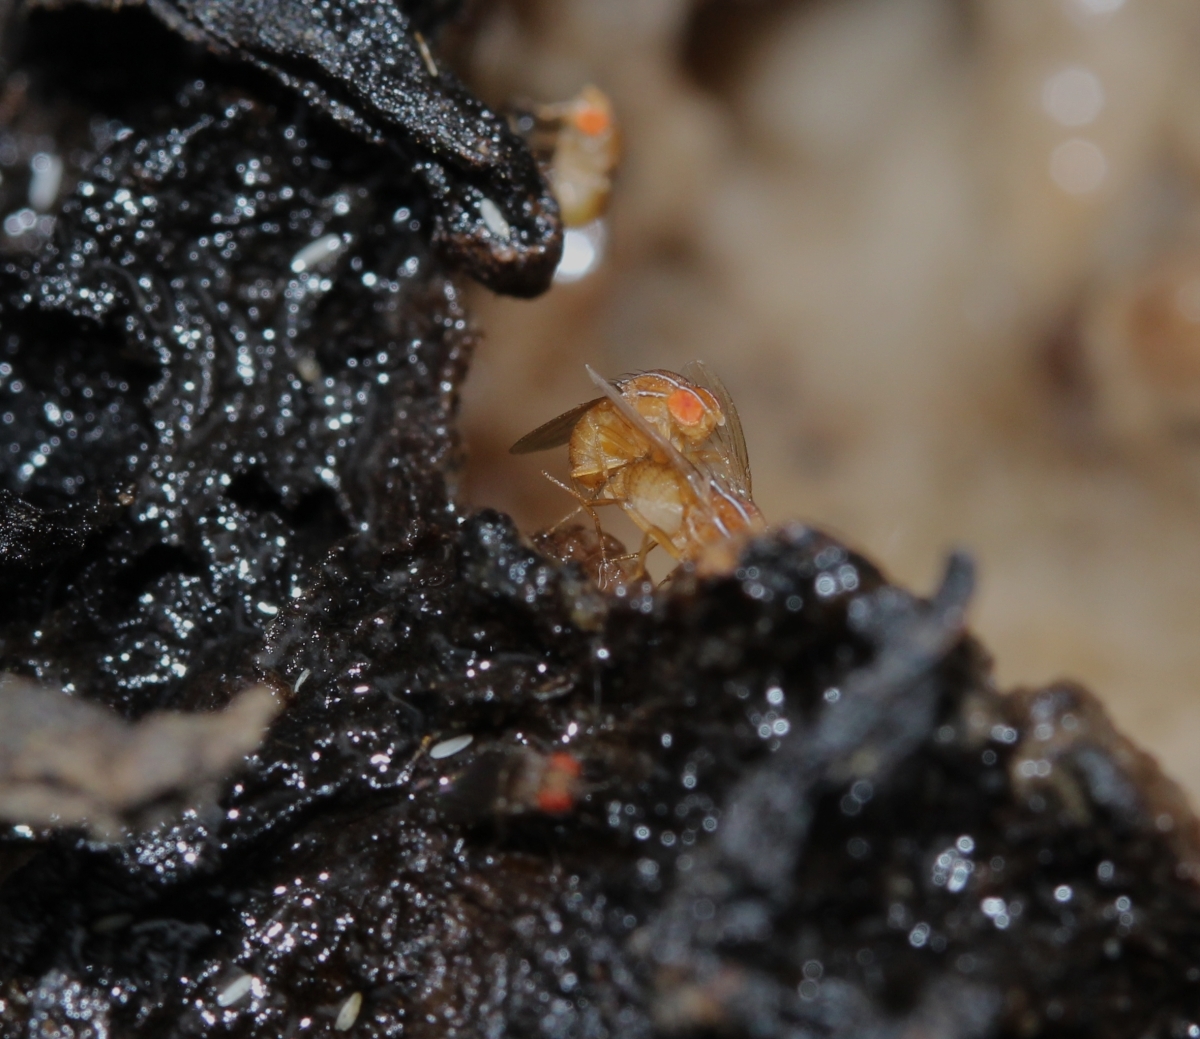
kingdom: Animalia
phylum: Arthropoda
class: Insecta
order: Diptera
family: Drosophilidae
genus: Zaprionus
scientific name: Zaprionus
